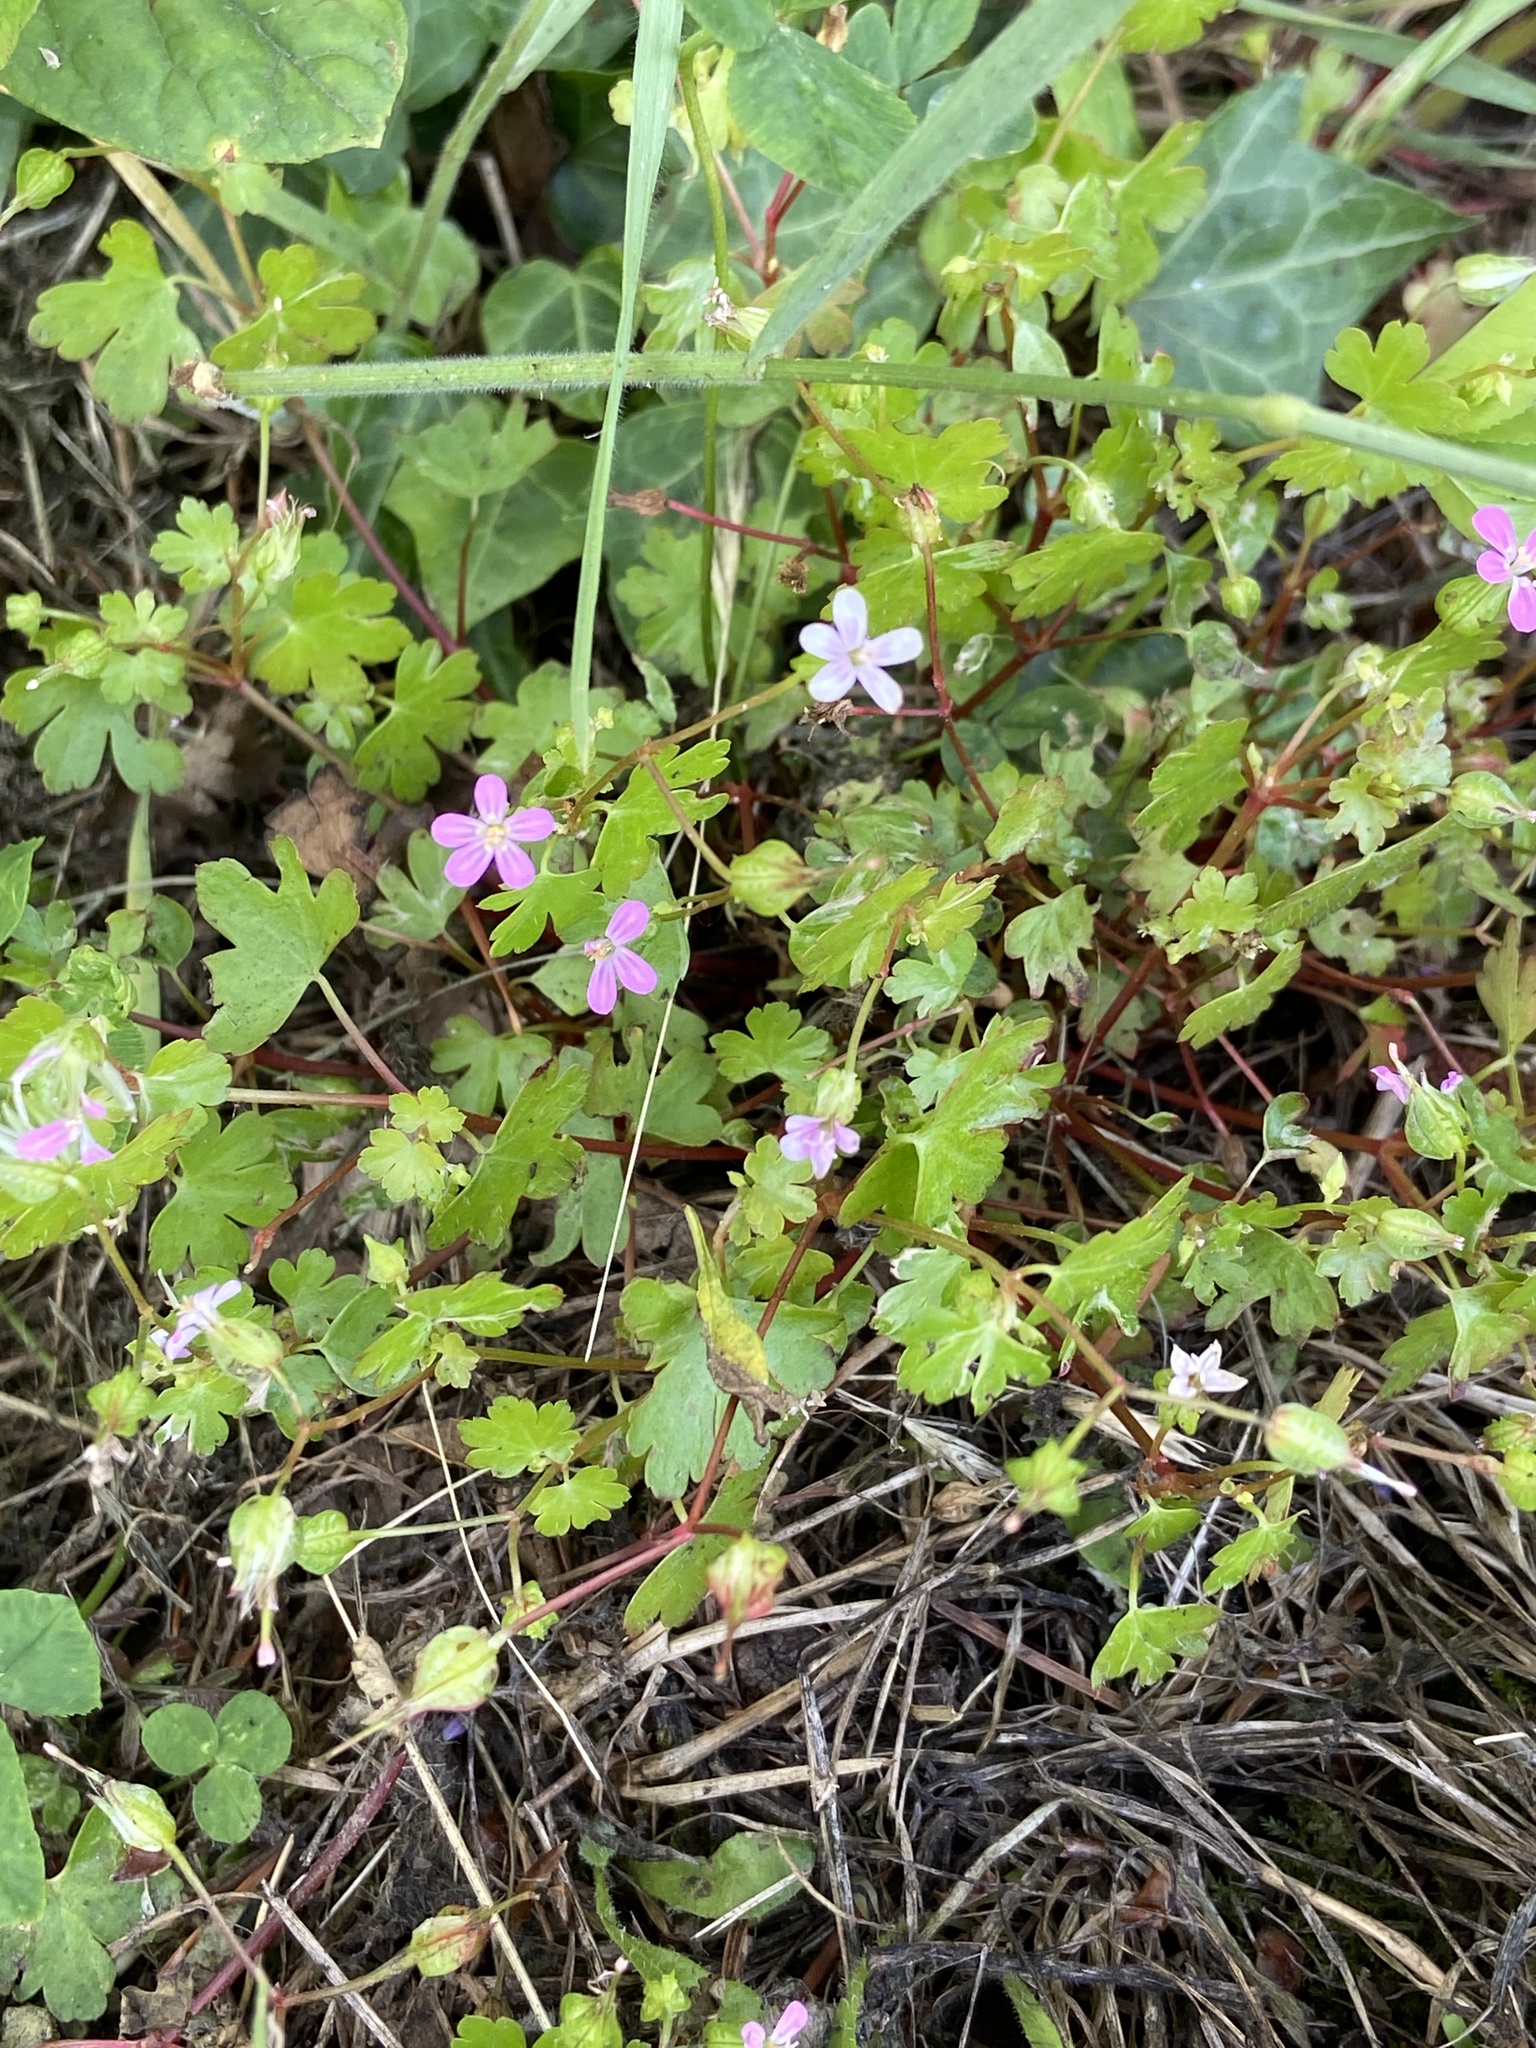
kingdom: Plantae
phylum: Tracheophyta
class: Magnoliopsida
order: Geraniales
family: Geraniaceae
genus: Geranium
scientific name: Geranium lucidum
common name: Shining crane's-bill
